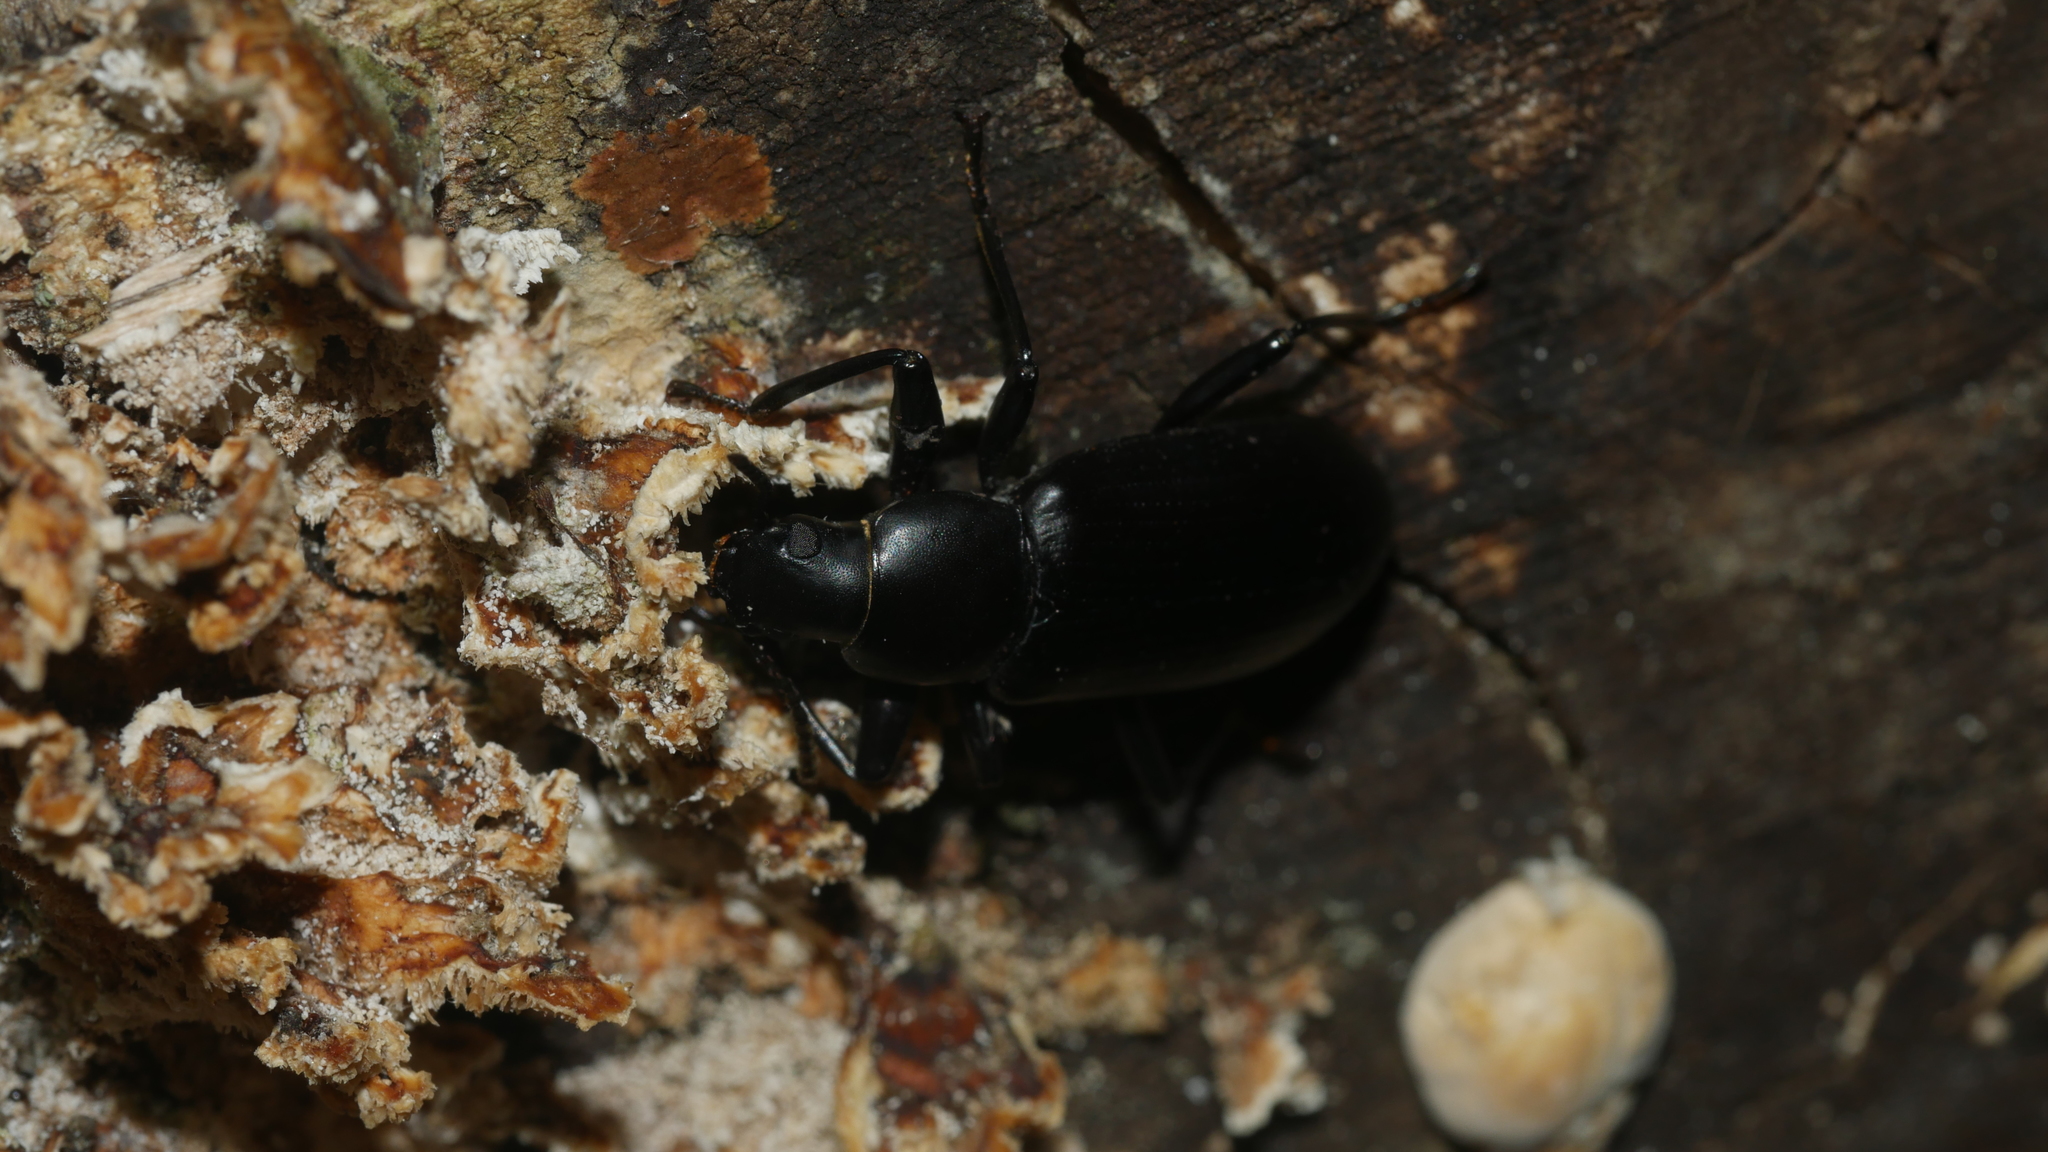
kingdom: Animalia
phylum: Arthropoda
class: Insecta
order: Coleoptera
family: Tenebrionidae
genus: Alobates
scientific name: Alobates
